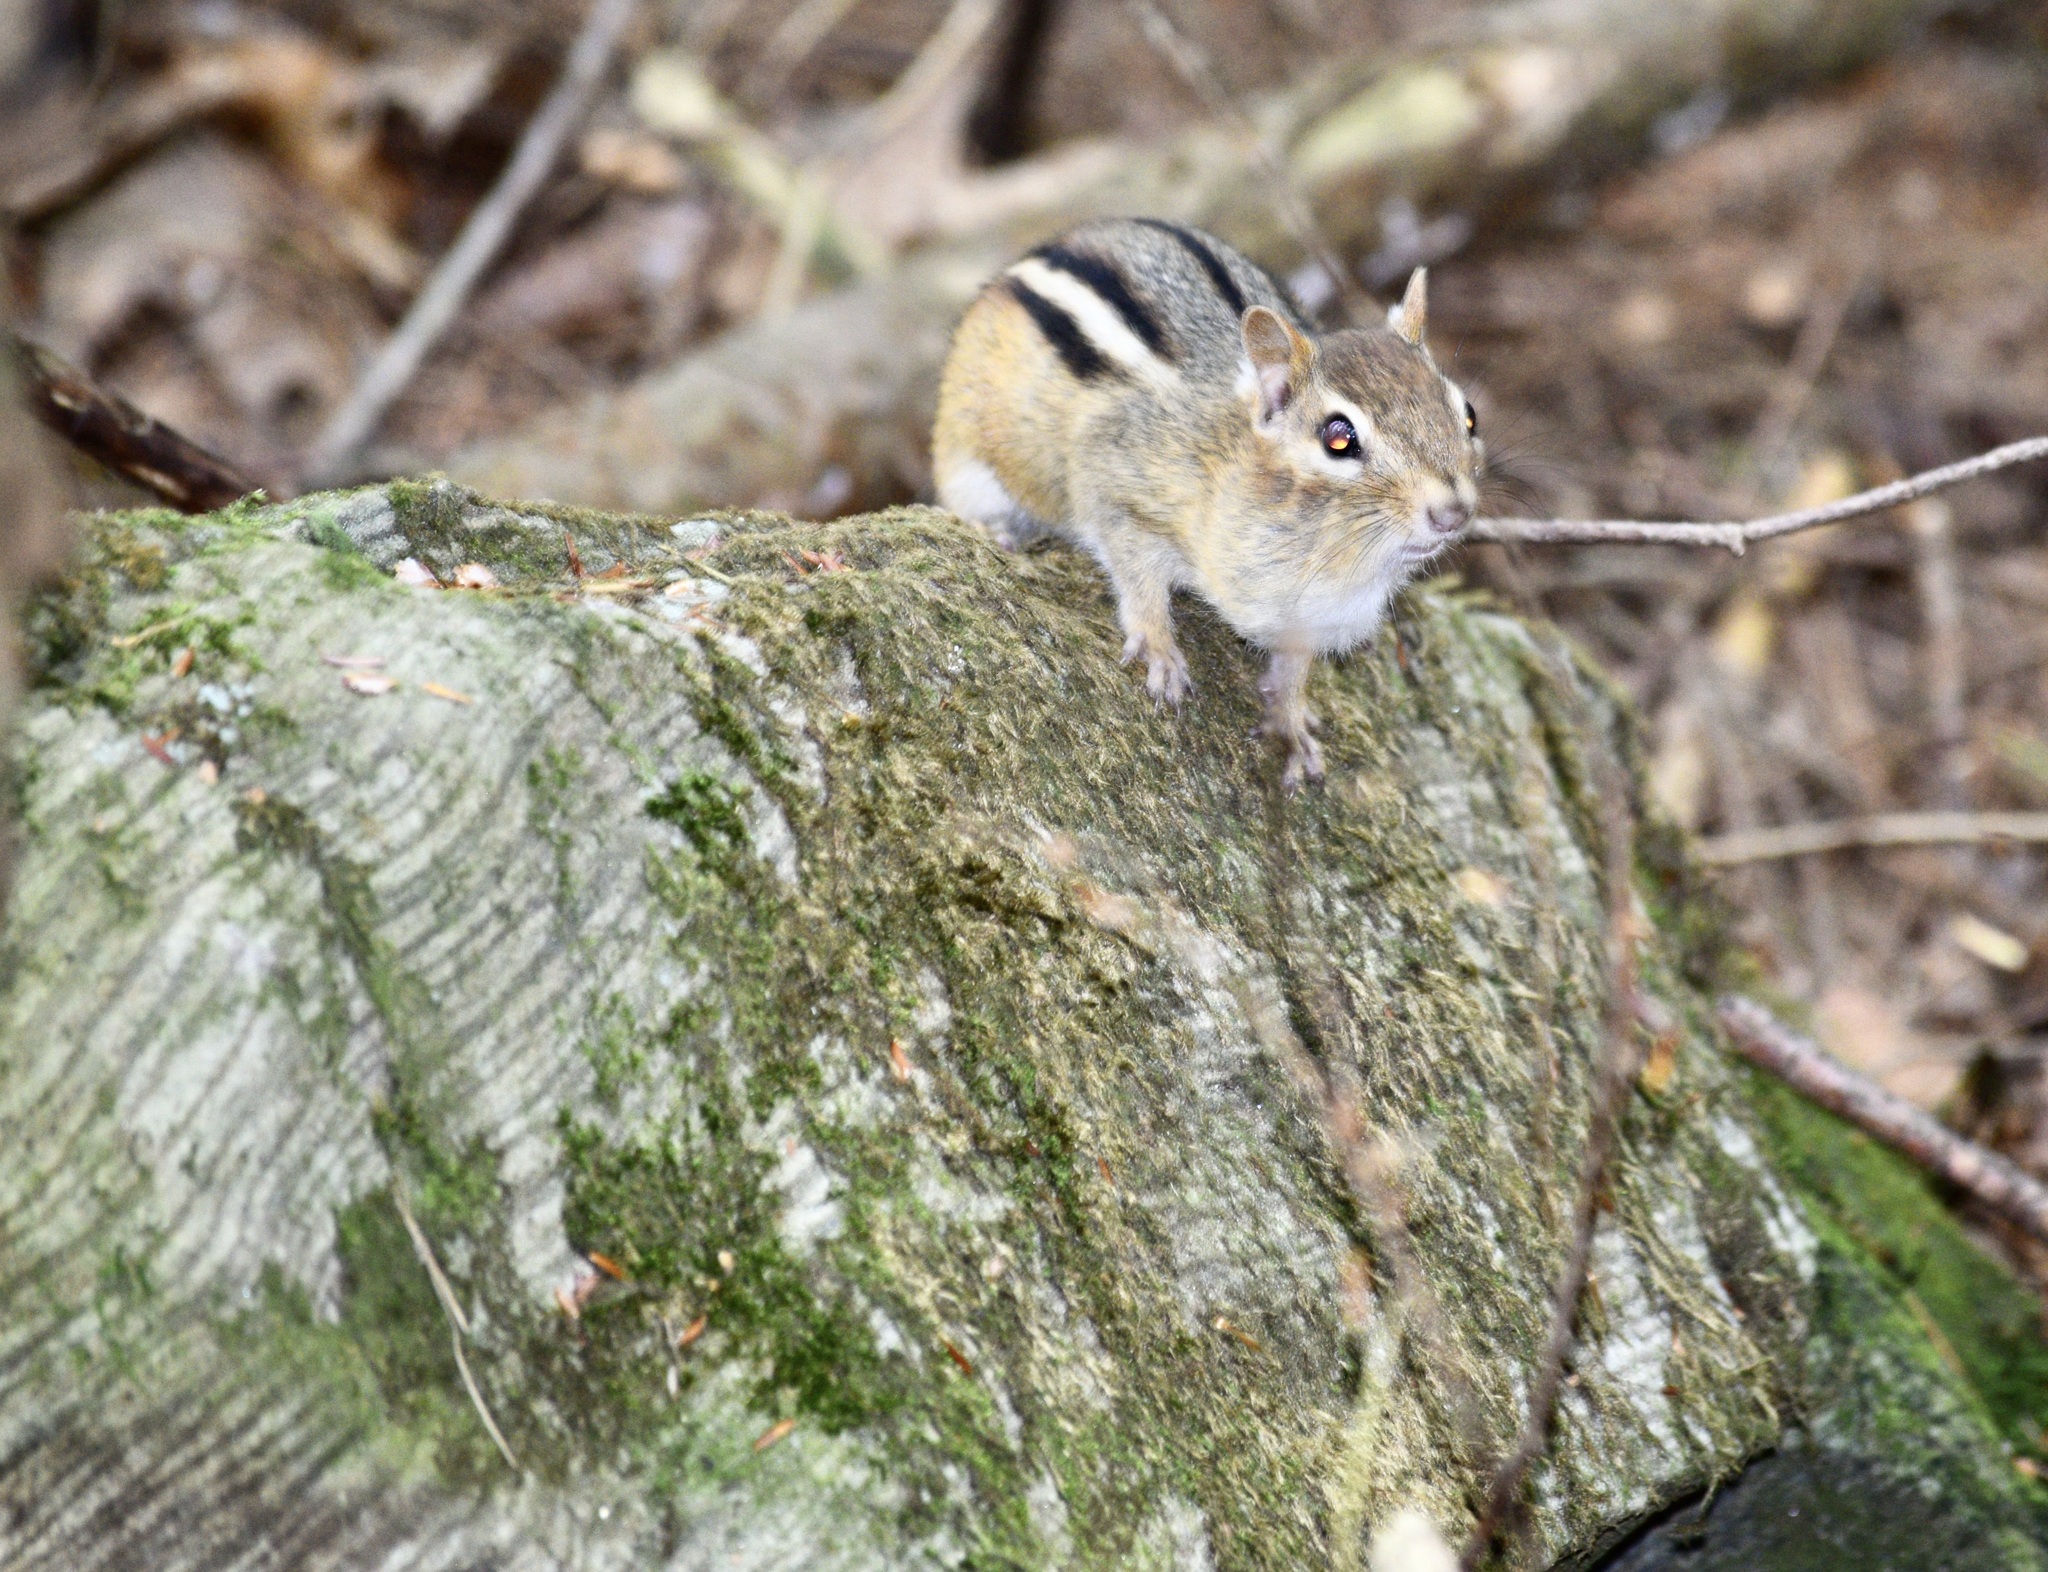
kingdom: Animalia
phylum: Chordata
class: Mammalia
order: Rodentia
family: Sciuridae
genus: Tamias
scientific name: Tamias striatus
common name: Eastern chipmunk
